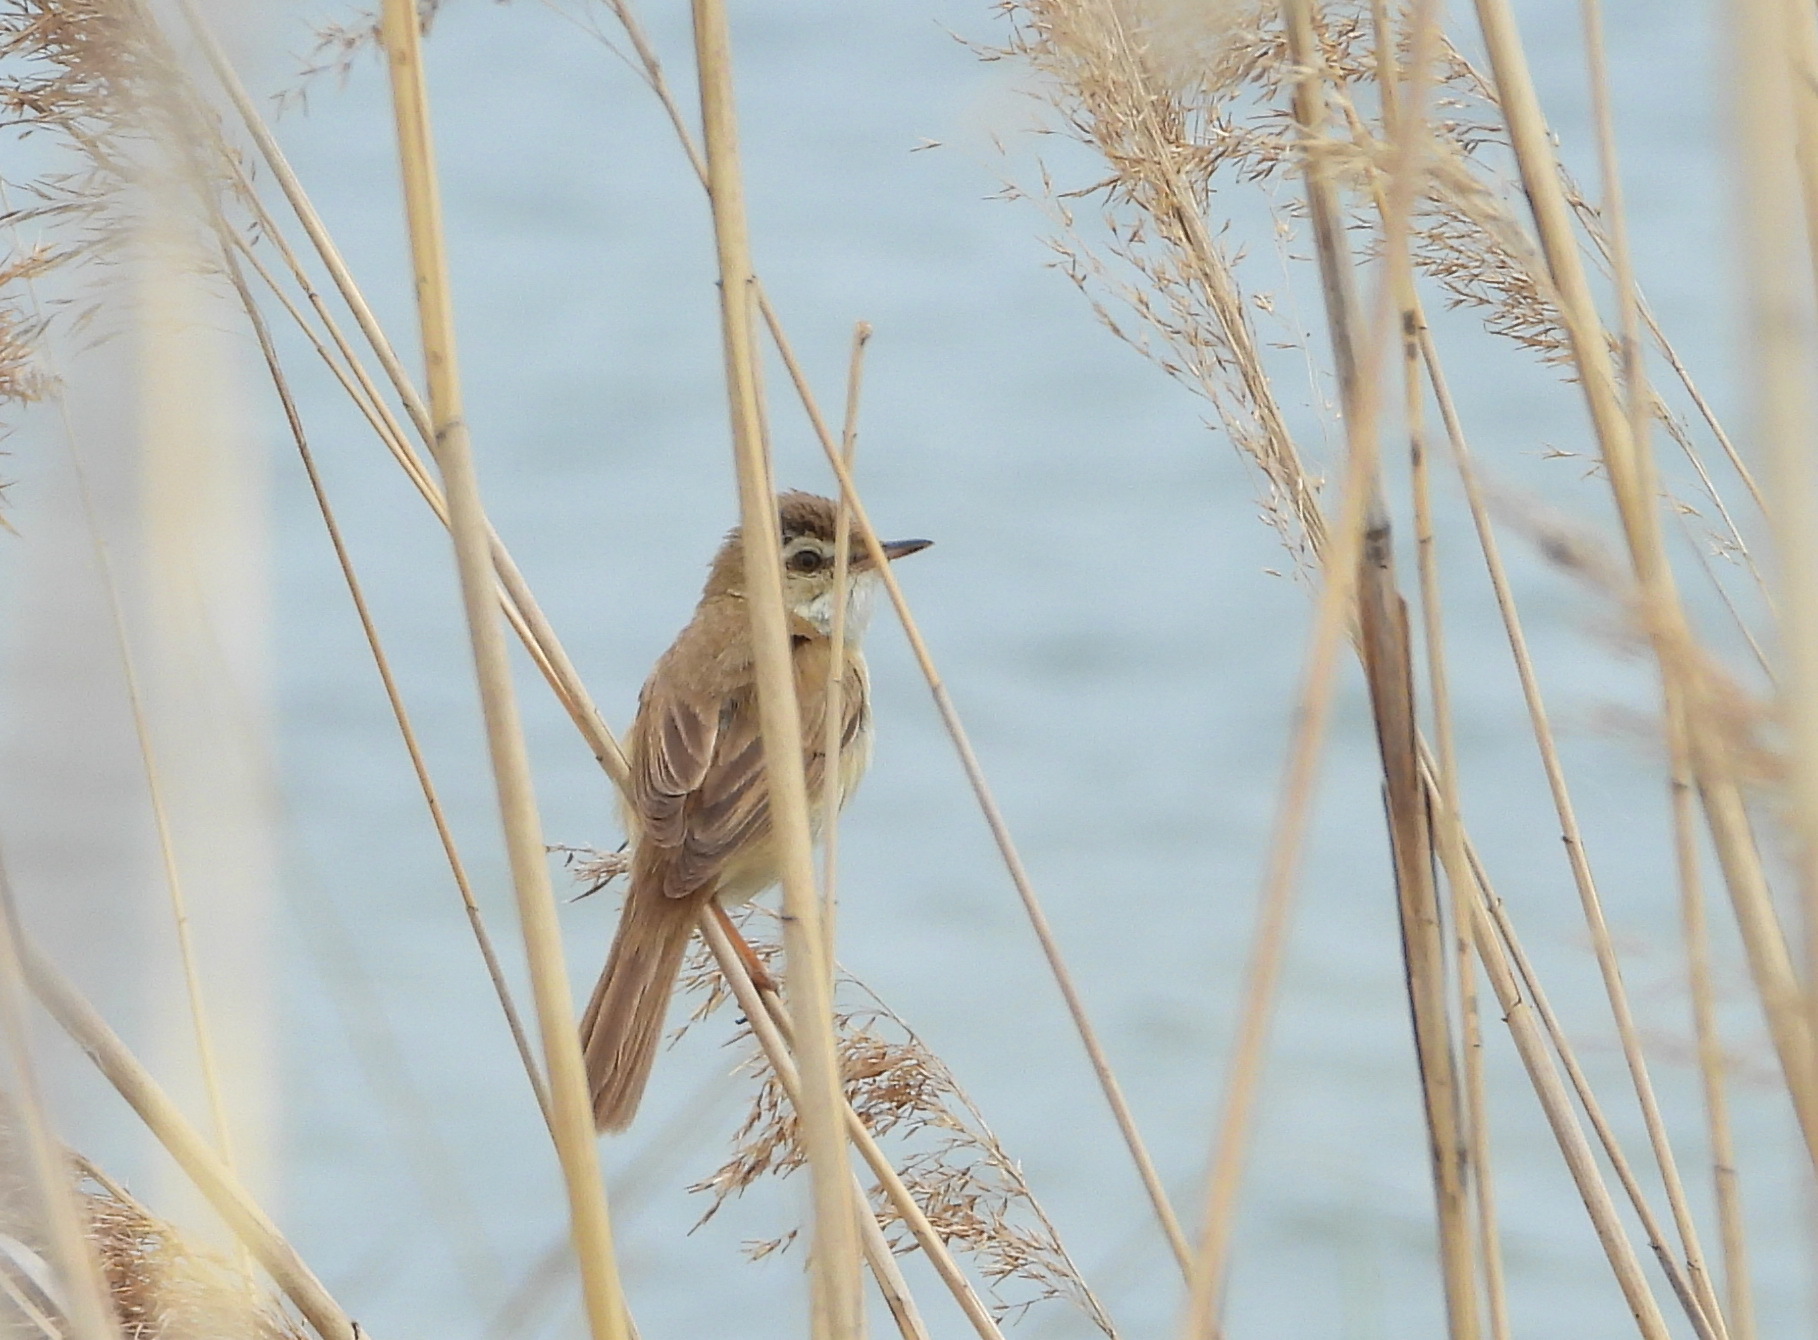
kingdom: Animalia
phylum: Chordata
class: Aves
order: Passeriformes
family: Acrocephalidae
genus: Acrocephalus
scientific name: Acrocephalus agricola
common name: Paddyfield warbler
